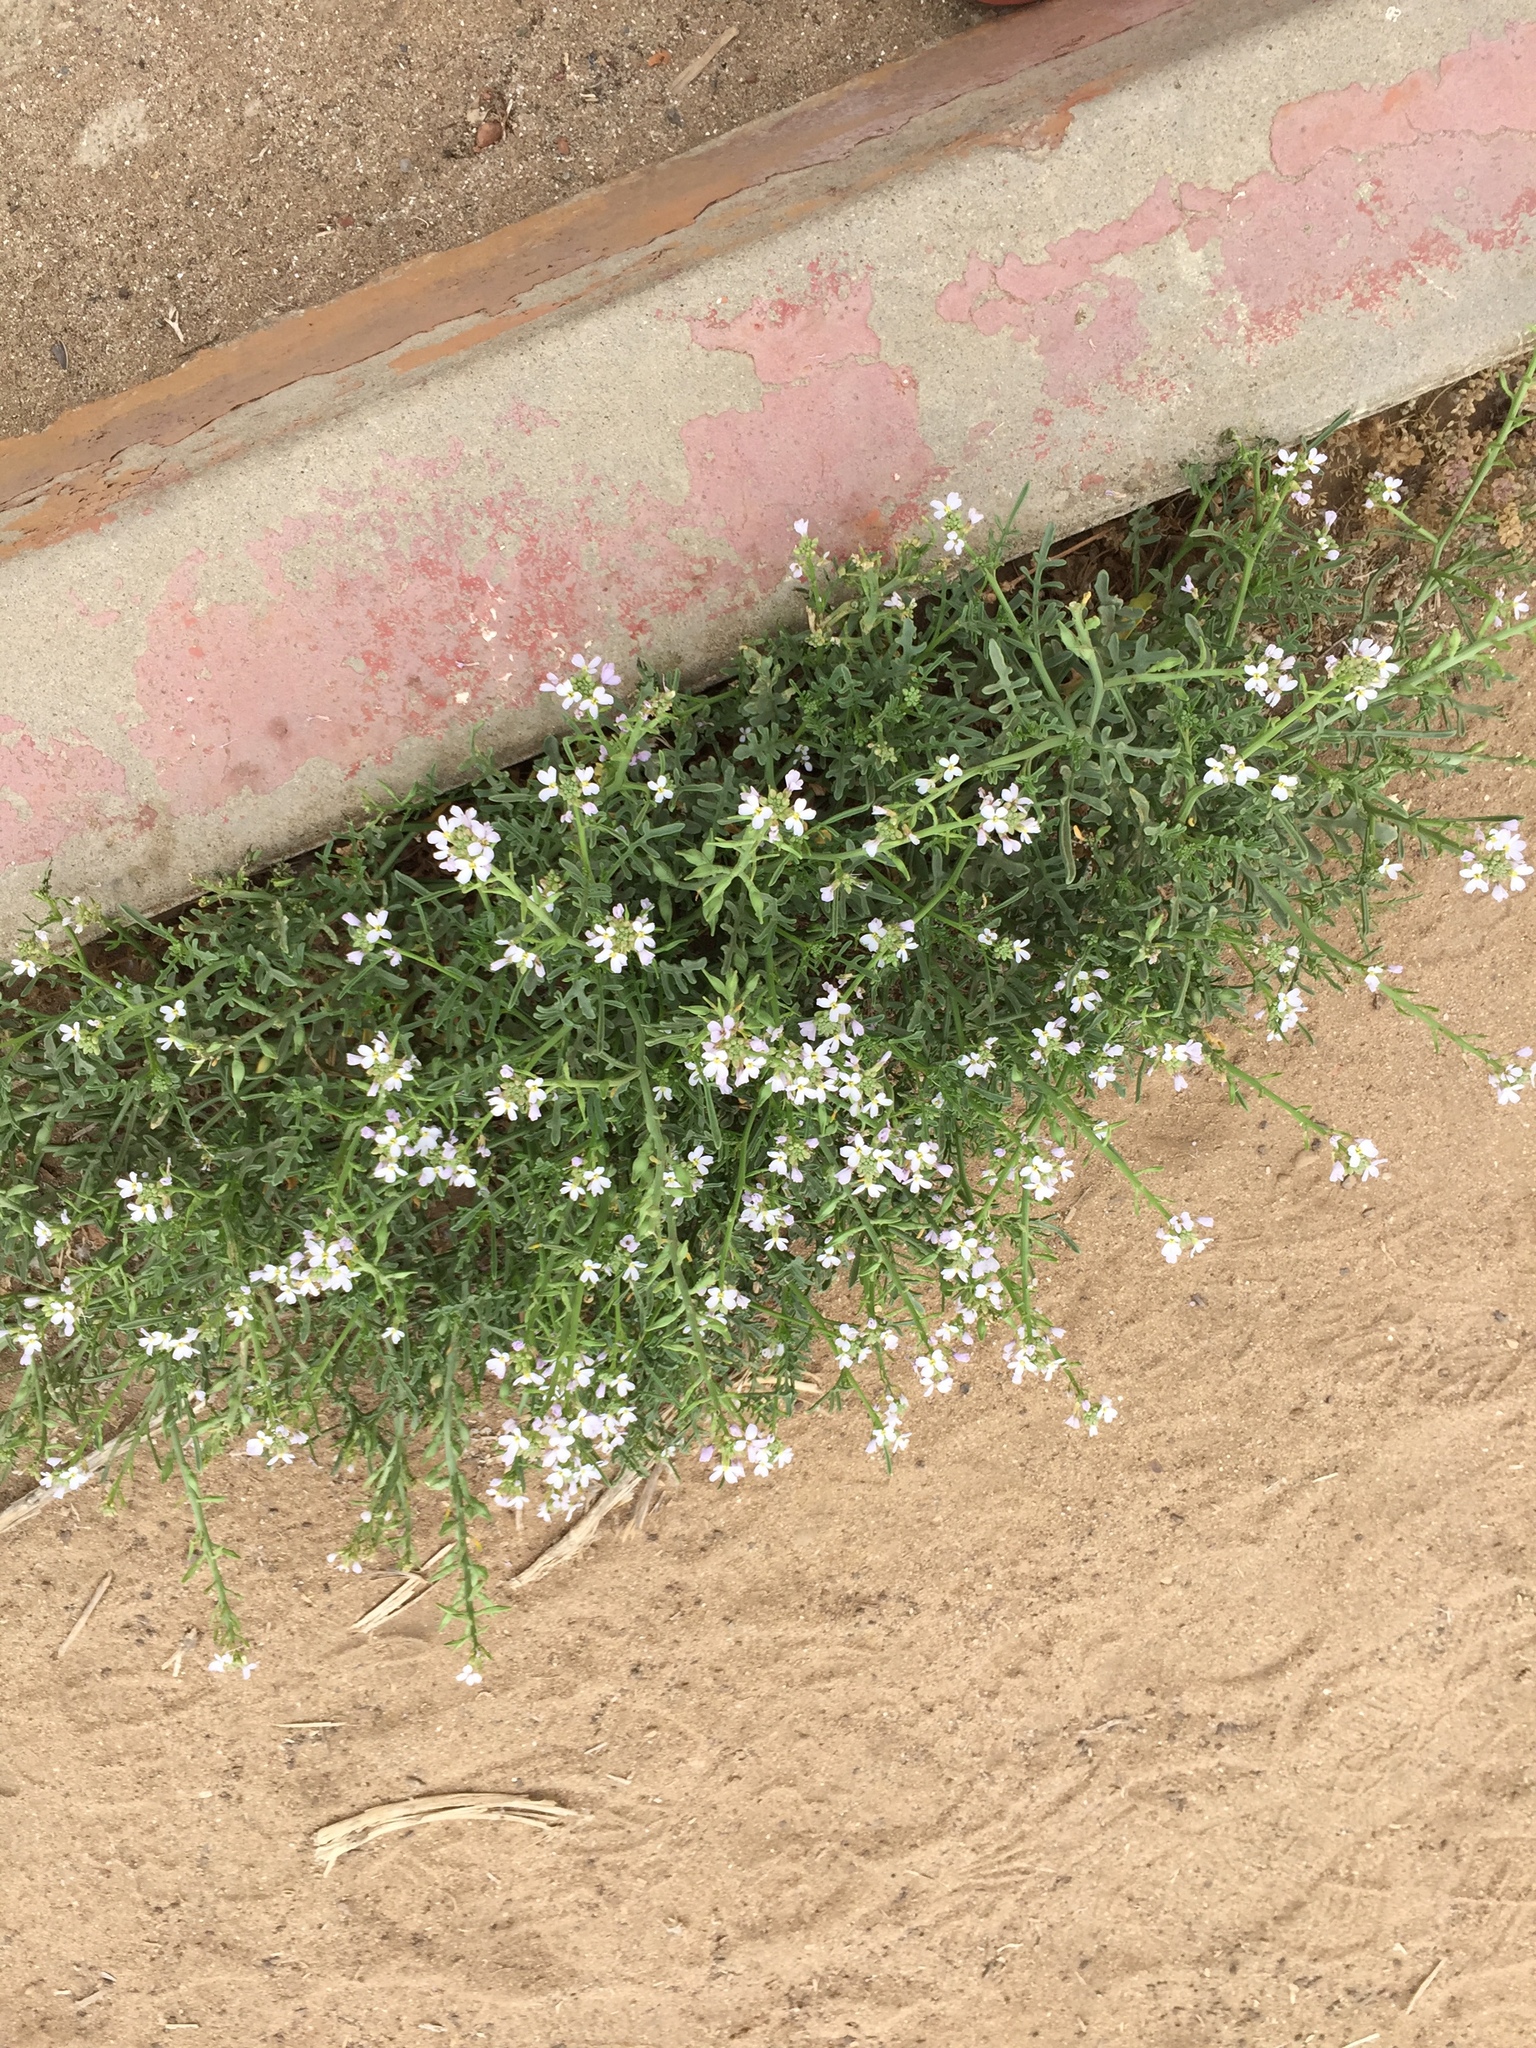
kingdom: Plantae
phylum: Tracheophyta
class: Magnoliopsida
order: Brassicales
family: Brassicaceae
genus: Cakile
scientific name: Cakile maritima
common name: Sea rocket
